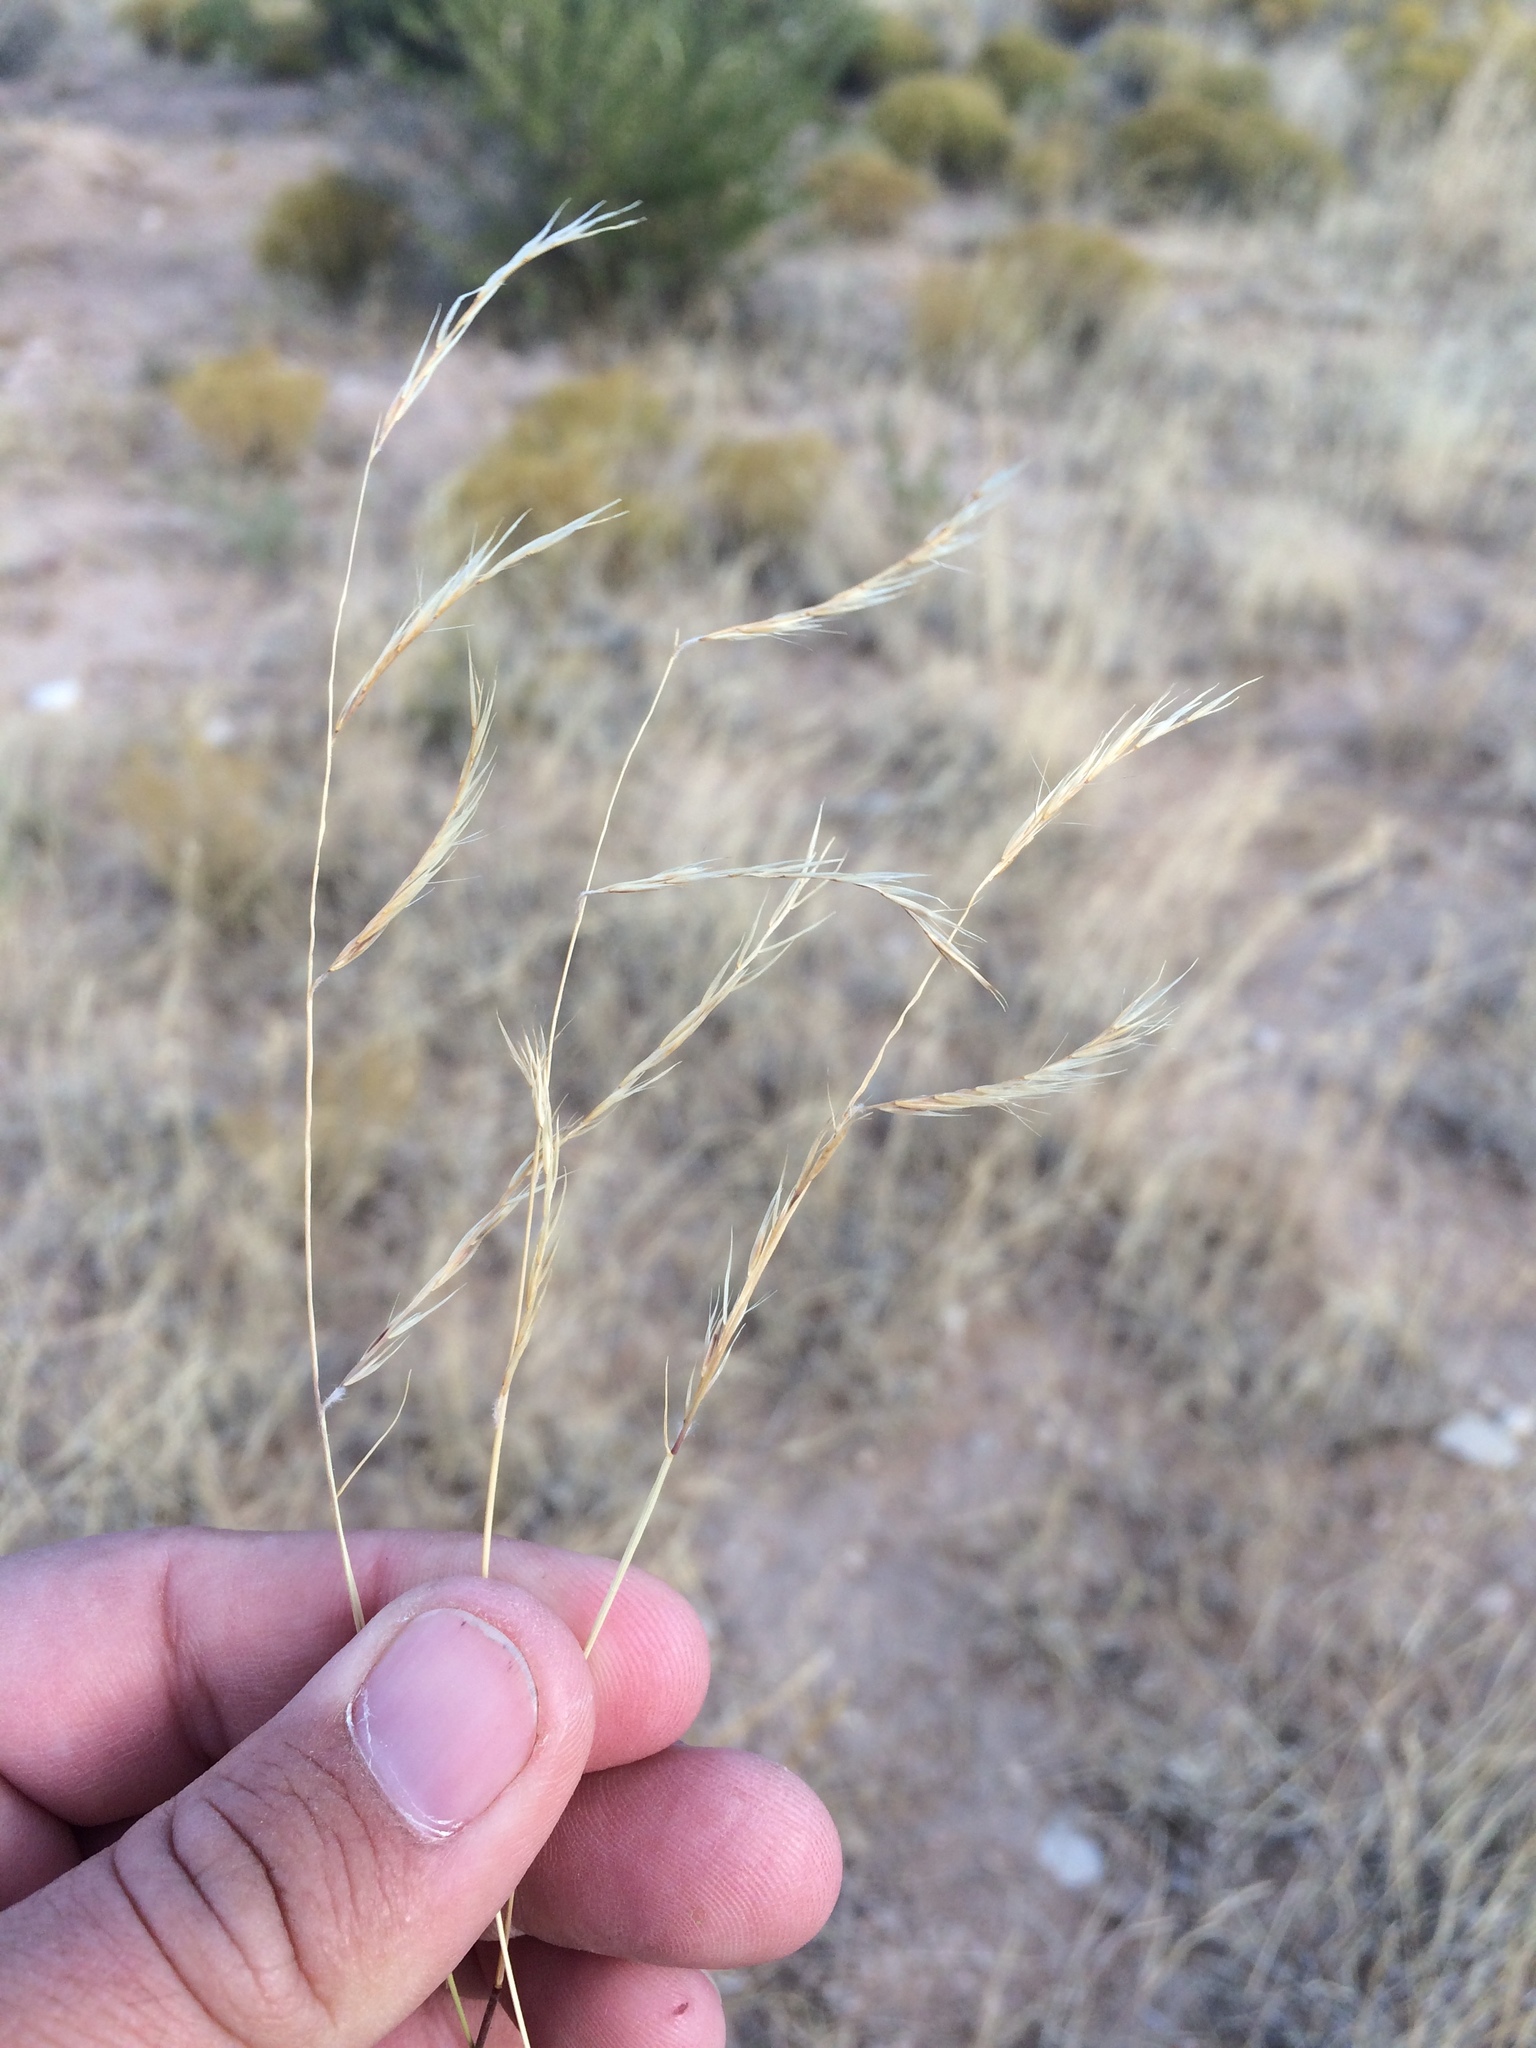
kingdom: Plantae
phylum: Tracheophyta
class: Liliopsida
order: Poales
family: Poaceae
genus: Bouteloua
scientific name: Bouteloua eriopoda
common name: Woolly foot grama
